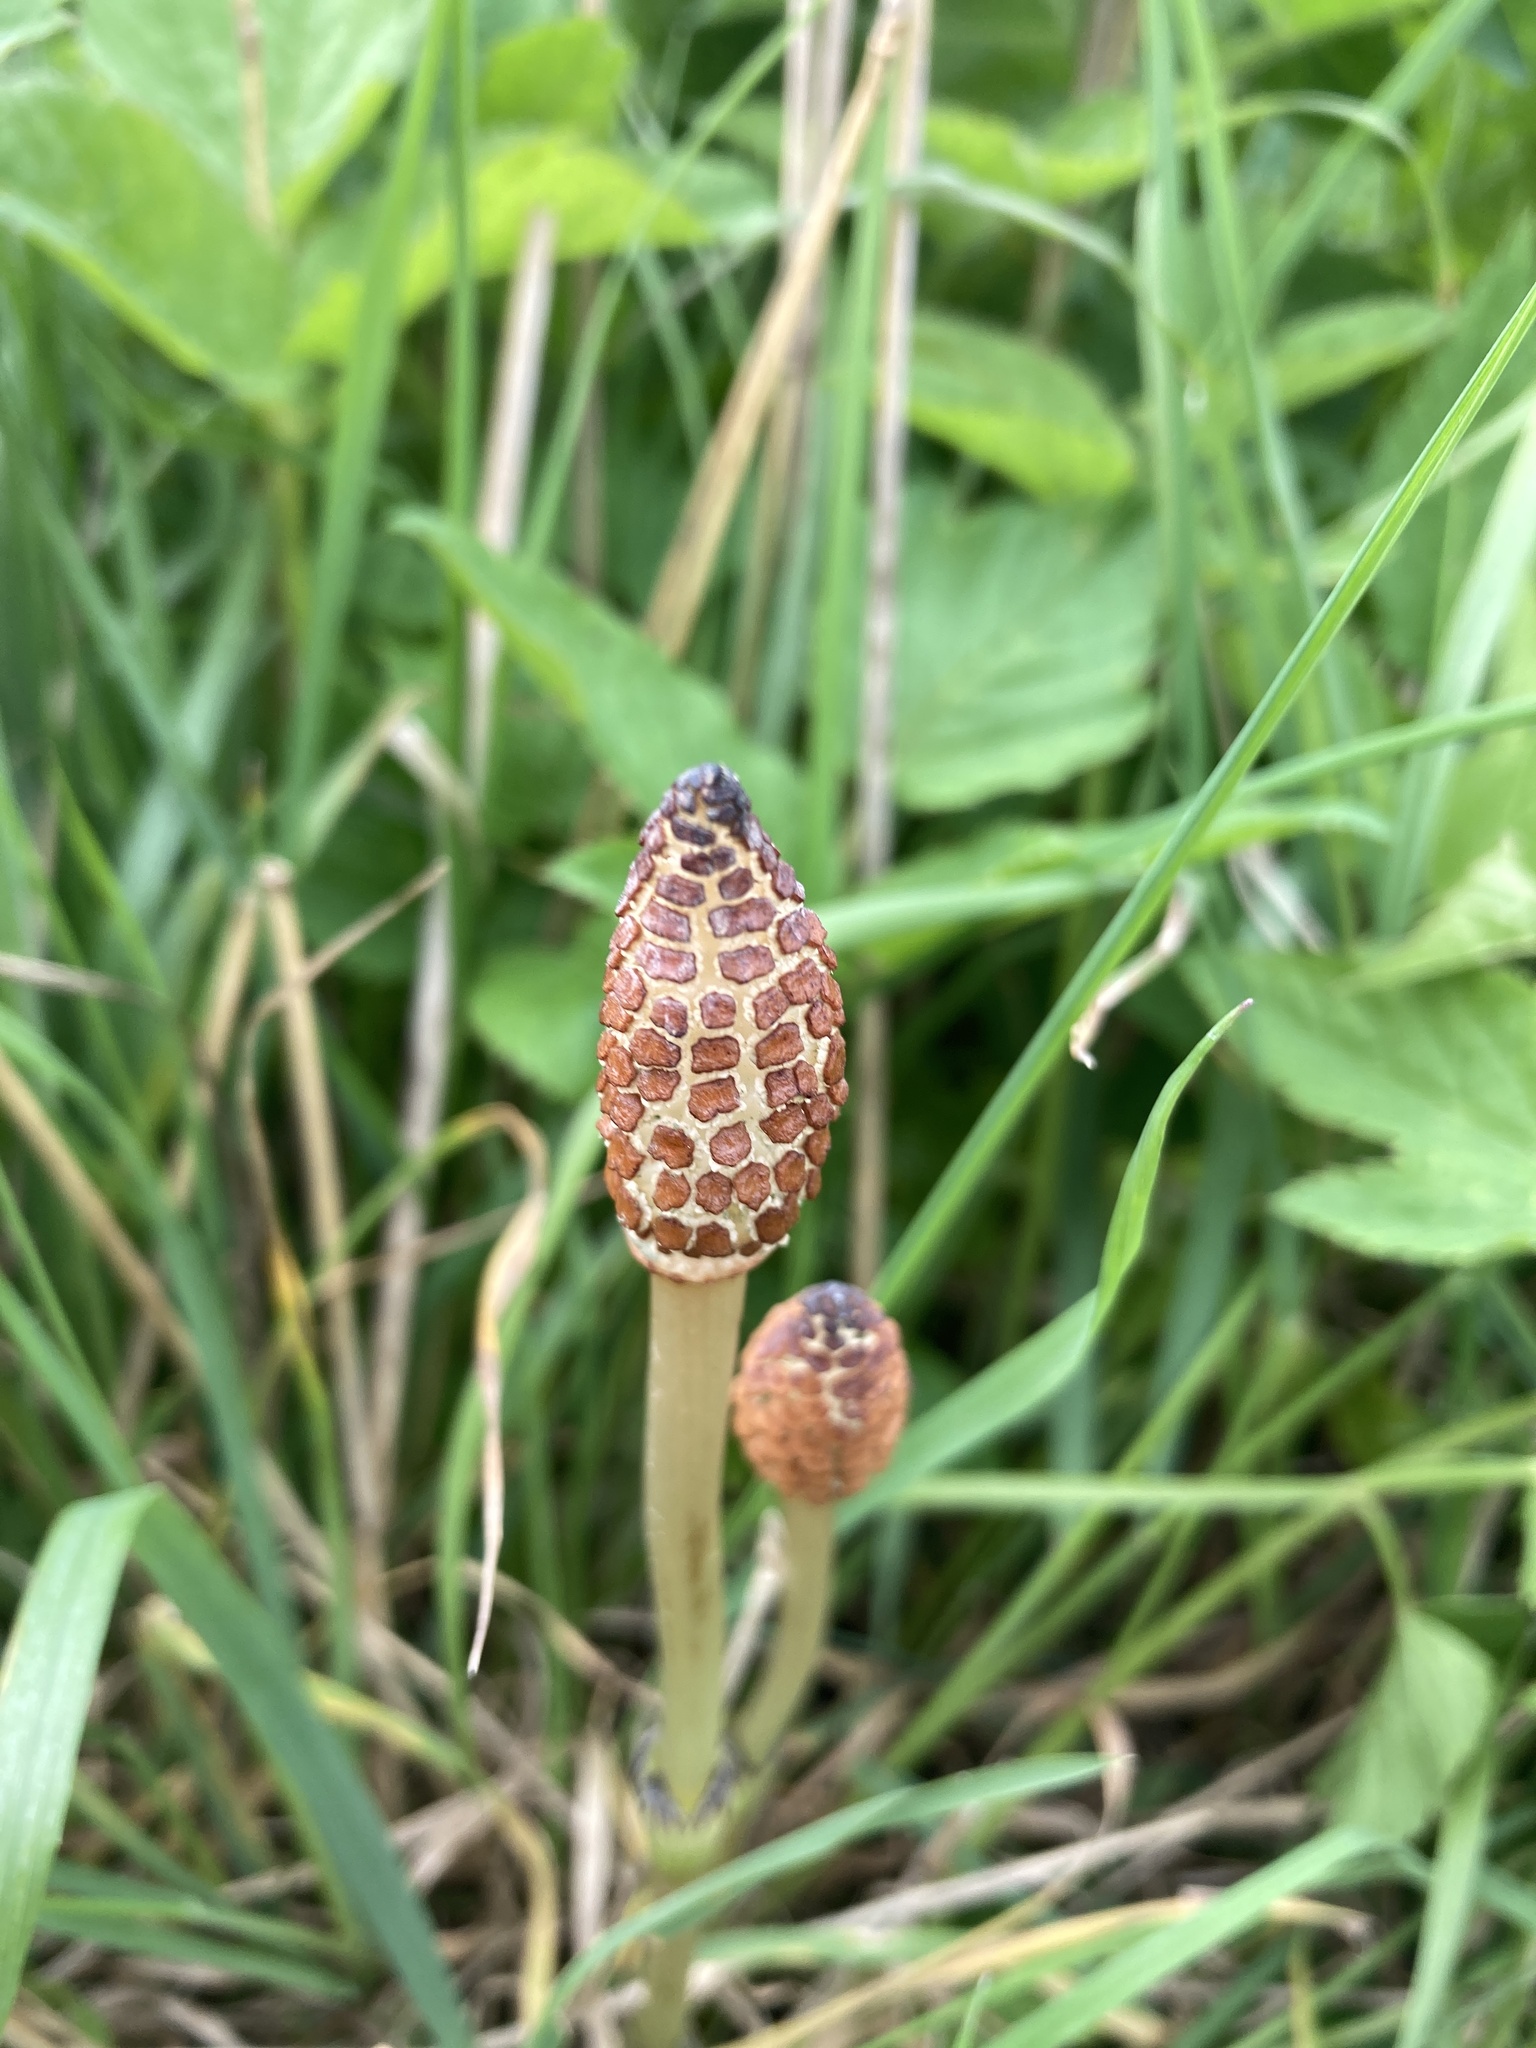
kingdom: Plantae
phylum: Tracheophyta
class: Polypodiopsida
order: Equisetales
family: Equisetaceae
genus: Equisetum
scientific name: Equisetum arvense
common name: Field horsetail
